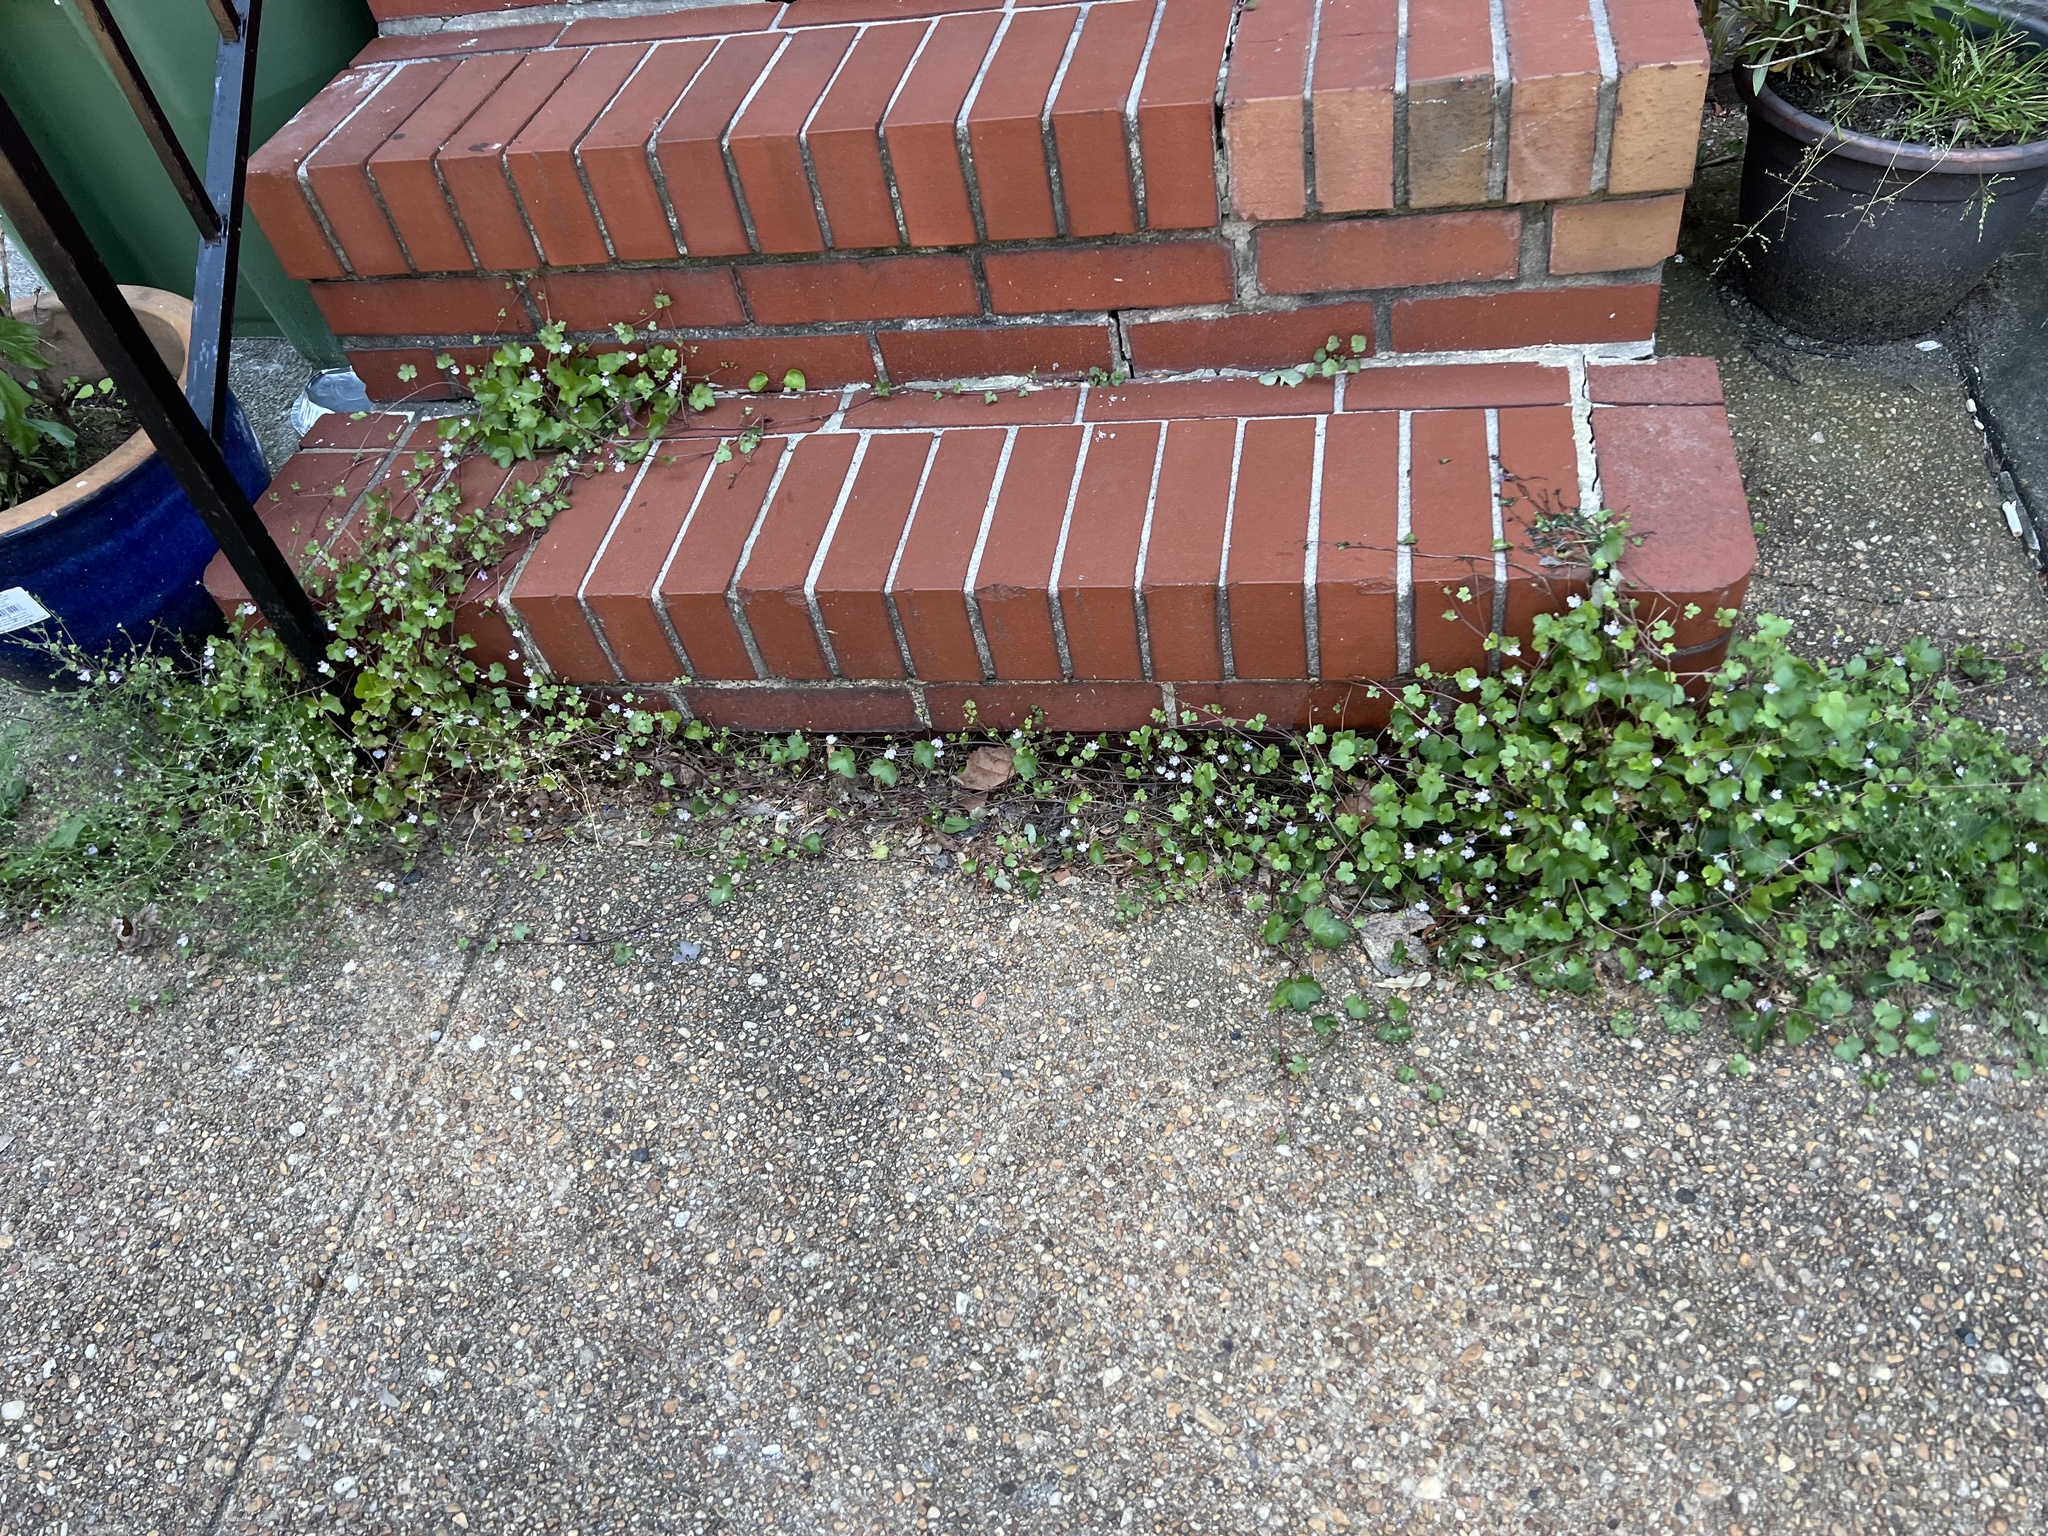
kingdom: Plantae
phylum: Tracheophyta
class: Magnoliopsida
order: Lamiales
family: Plantaginaceae
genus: Cymbalaria
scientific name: Cymbalaria muralis
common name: Ivy-leaved toadflax
